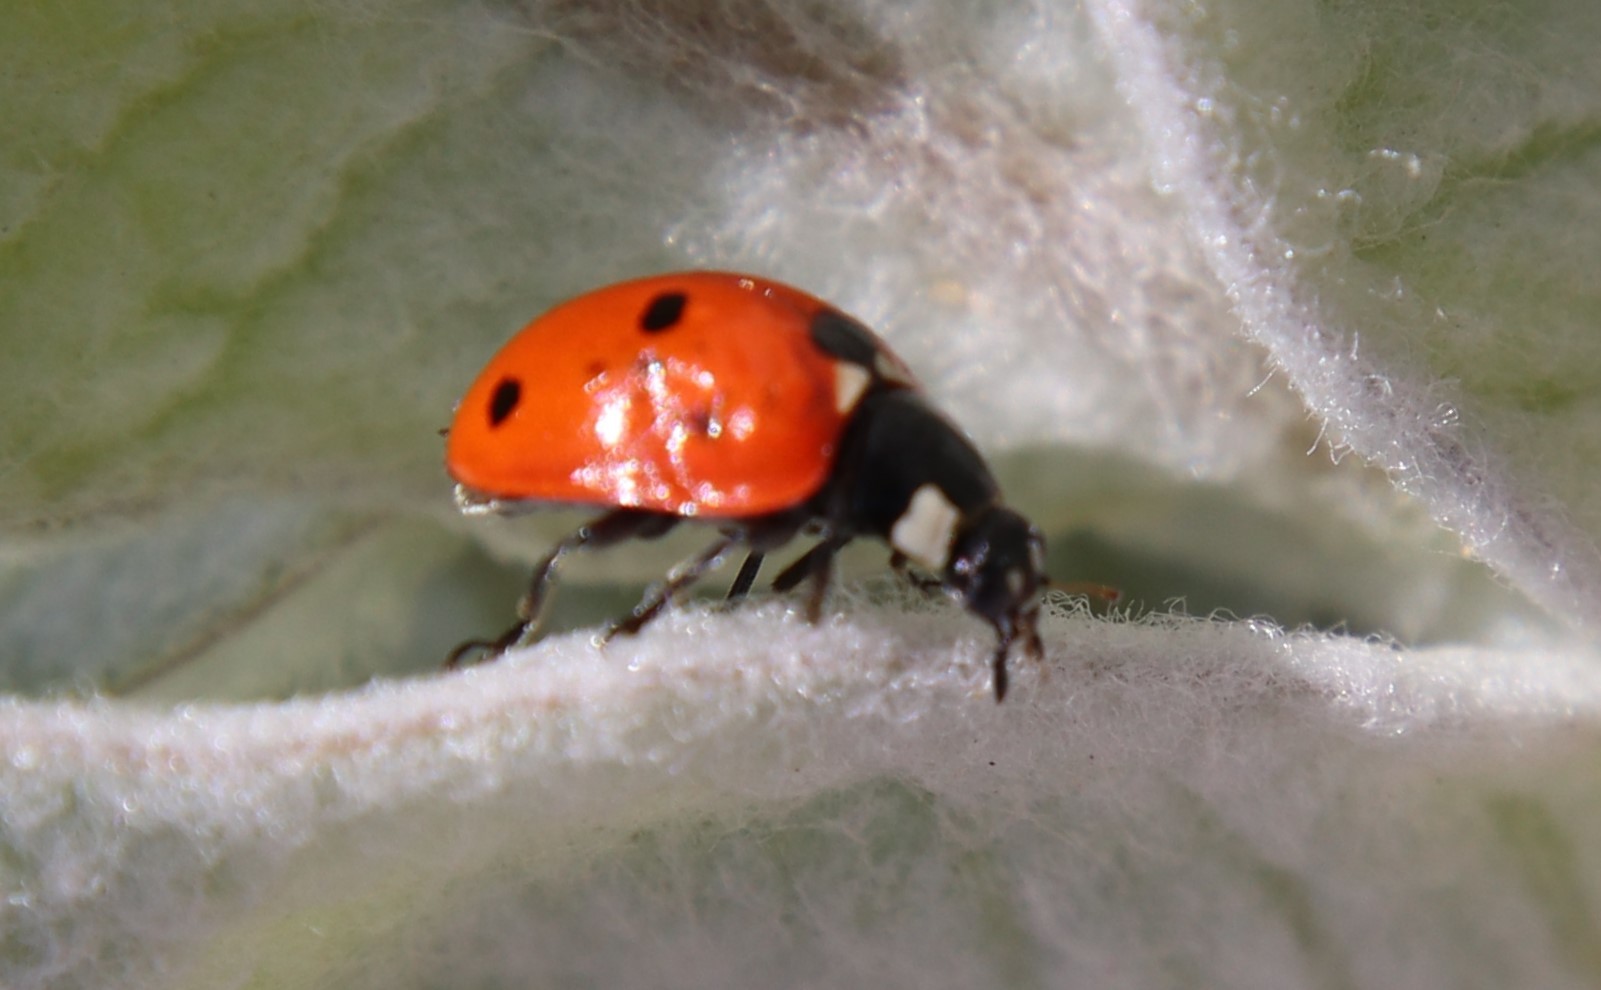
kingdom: Animalia
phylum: Arthropoda
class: Insecta
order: Coleoptera
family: Coccinellidae
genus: Coccinella
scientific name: Coccinella septempunctata
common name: Sevenspotted lady beetle
